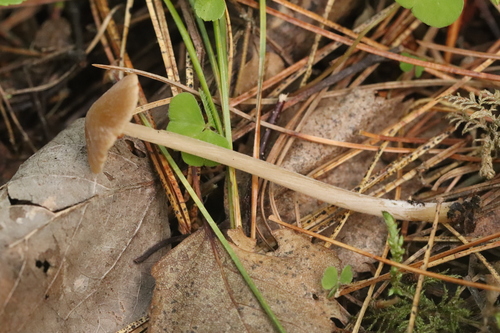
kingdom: Fungi
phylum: Basidiomycota
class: Agaricomycetes
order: Agaricales
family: Entolomataceae
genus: Entoloma
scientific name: Entoloma
